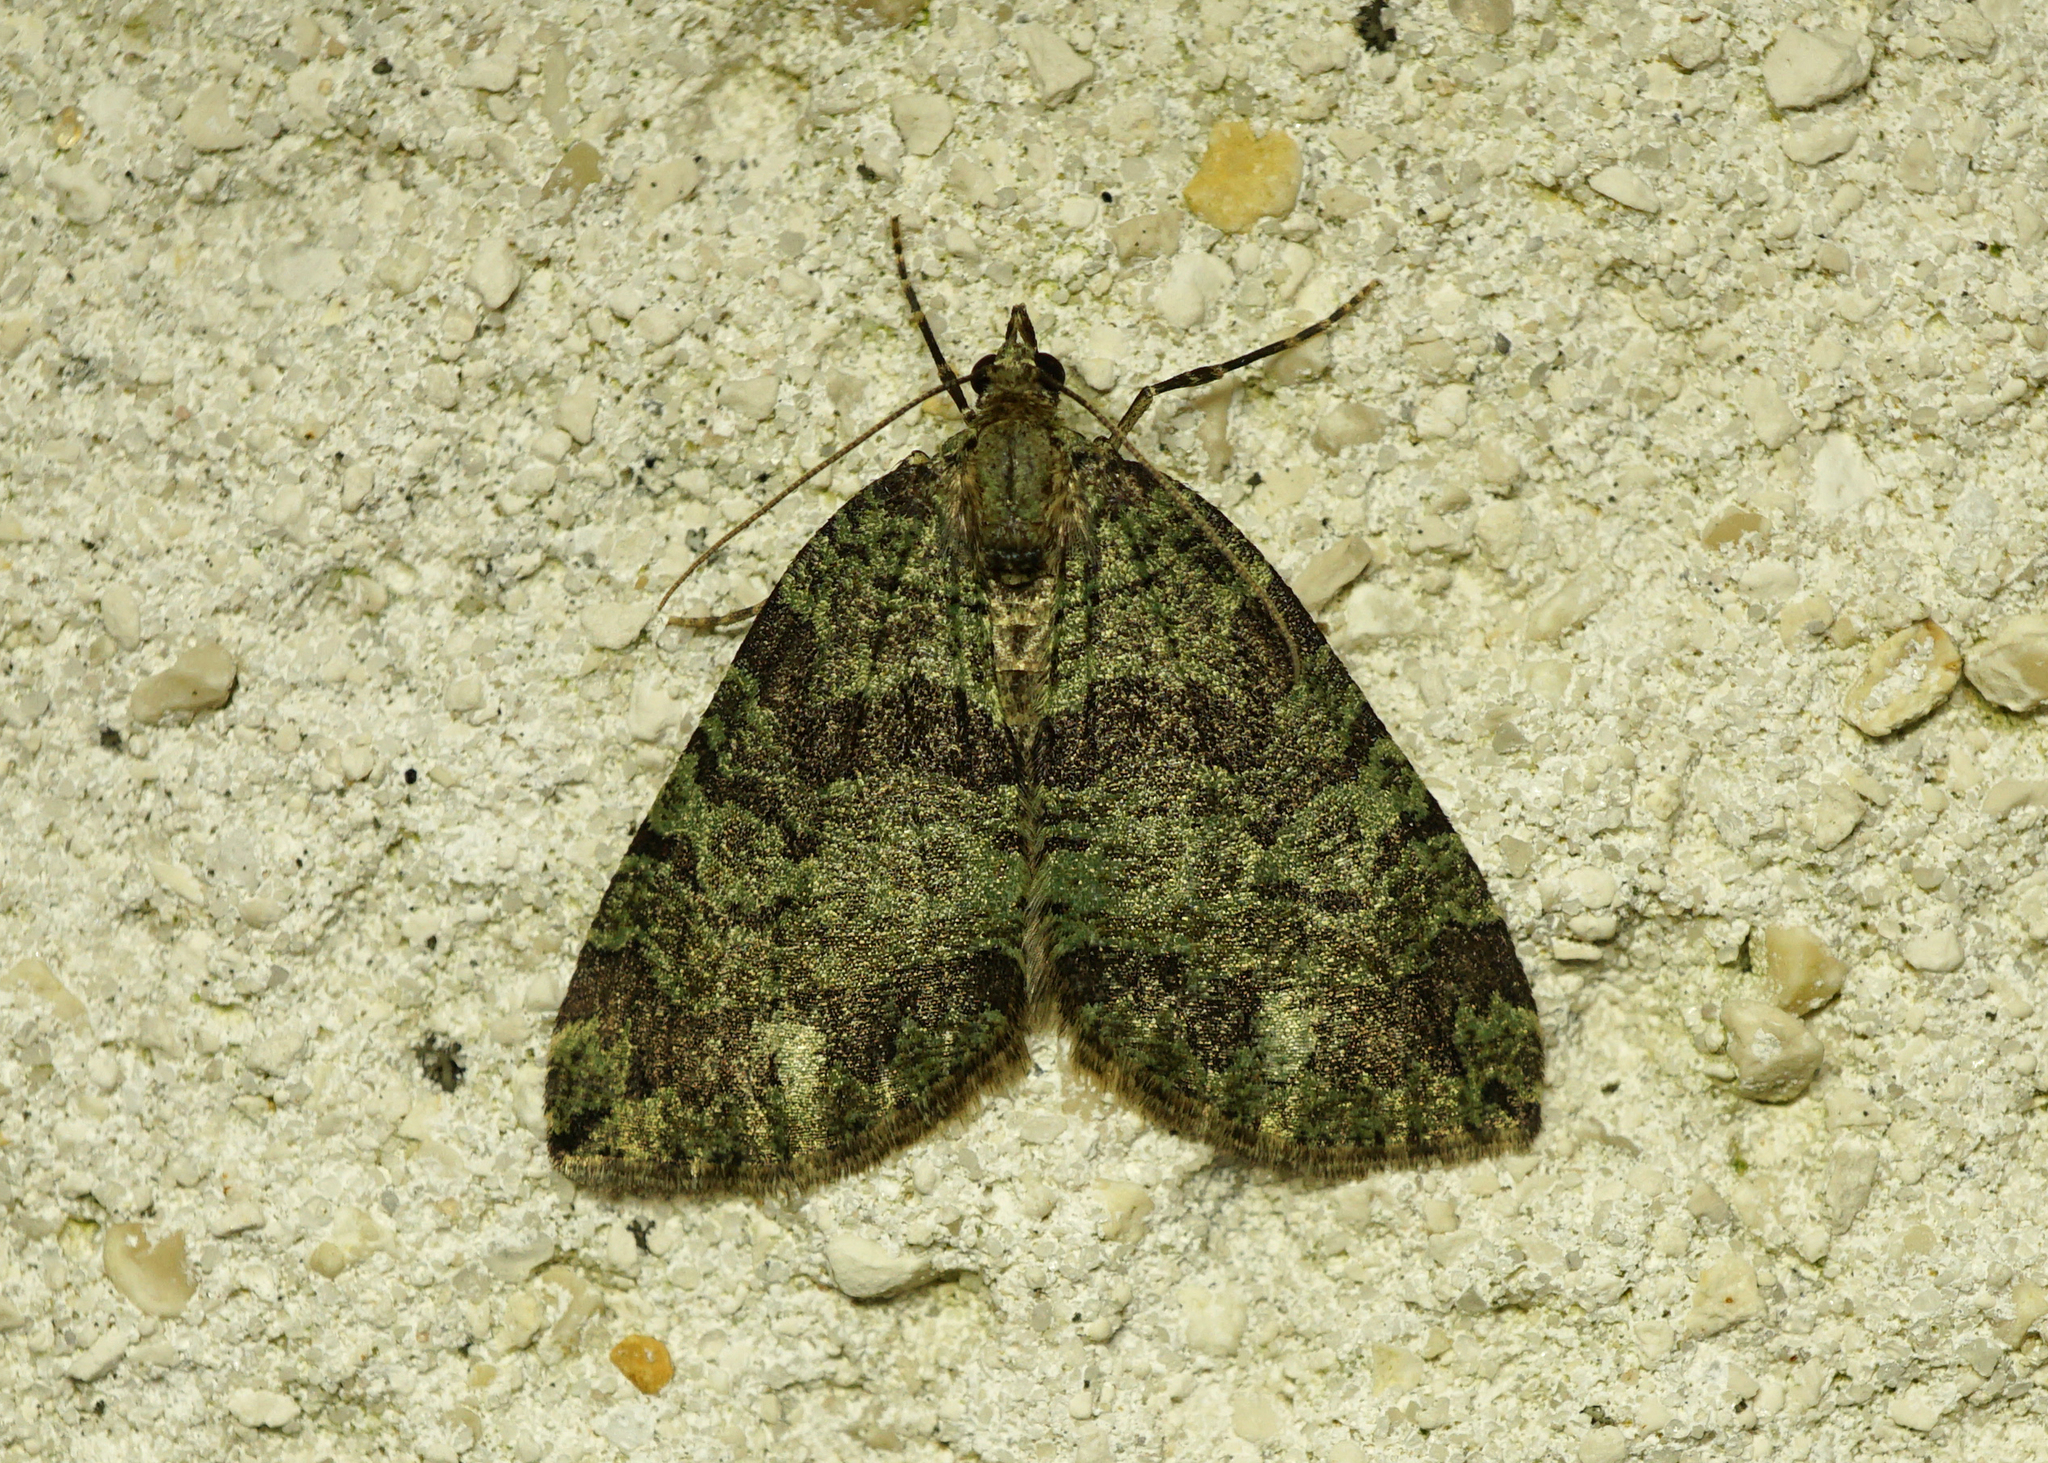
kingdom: Animalia
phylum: Arthropoda
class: Insecta
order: Lepidoptera
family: Geometridae
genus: Hydriomena
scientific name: Hydriomena furcata
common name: July highflyer
